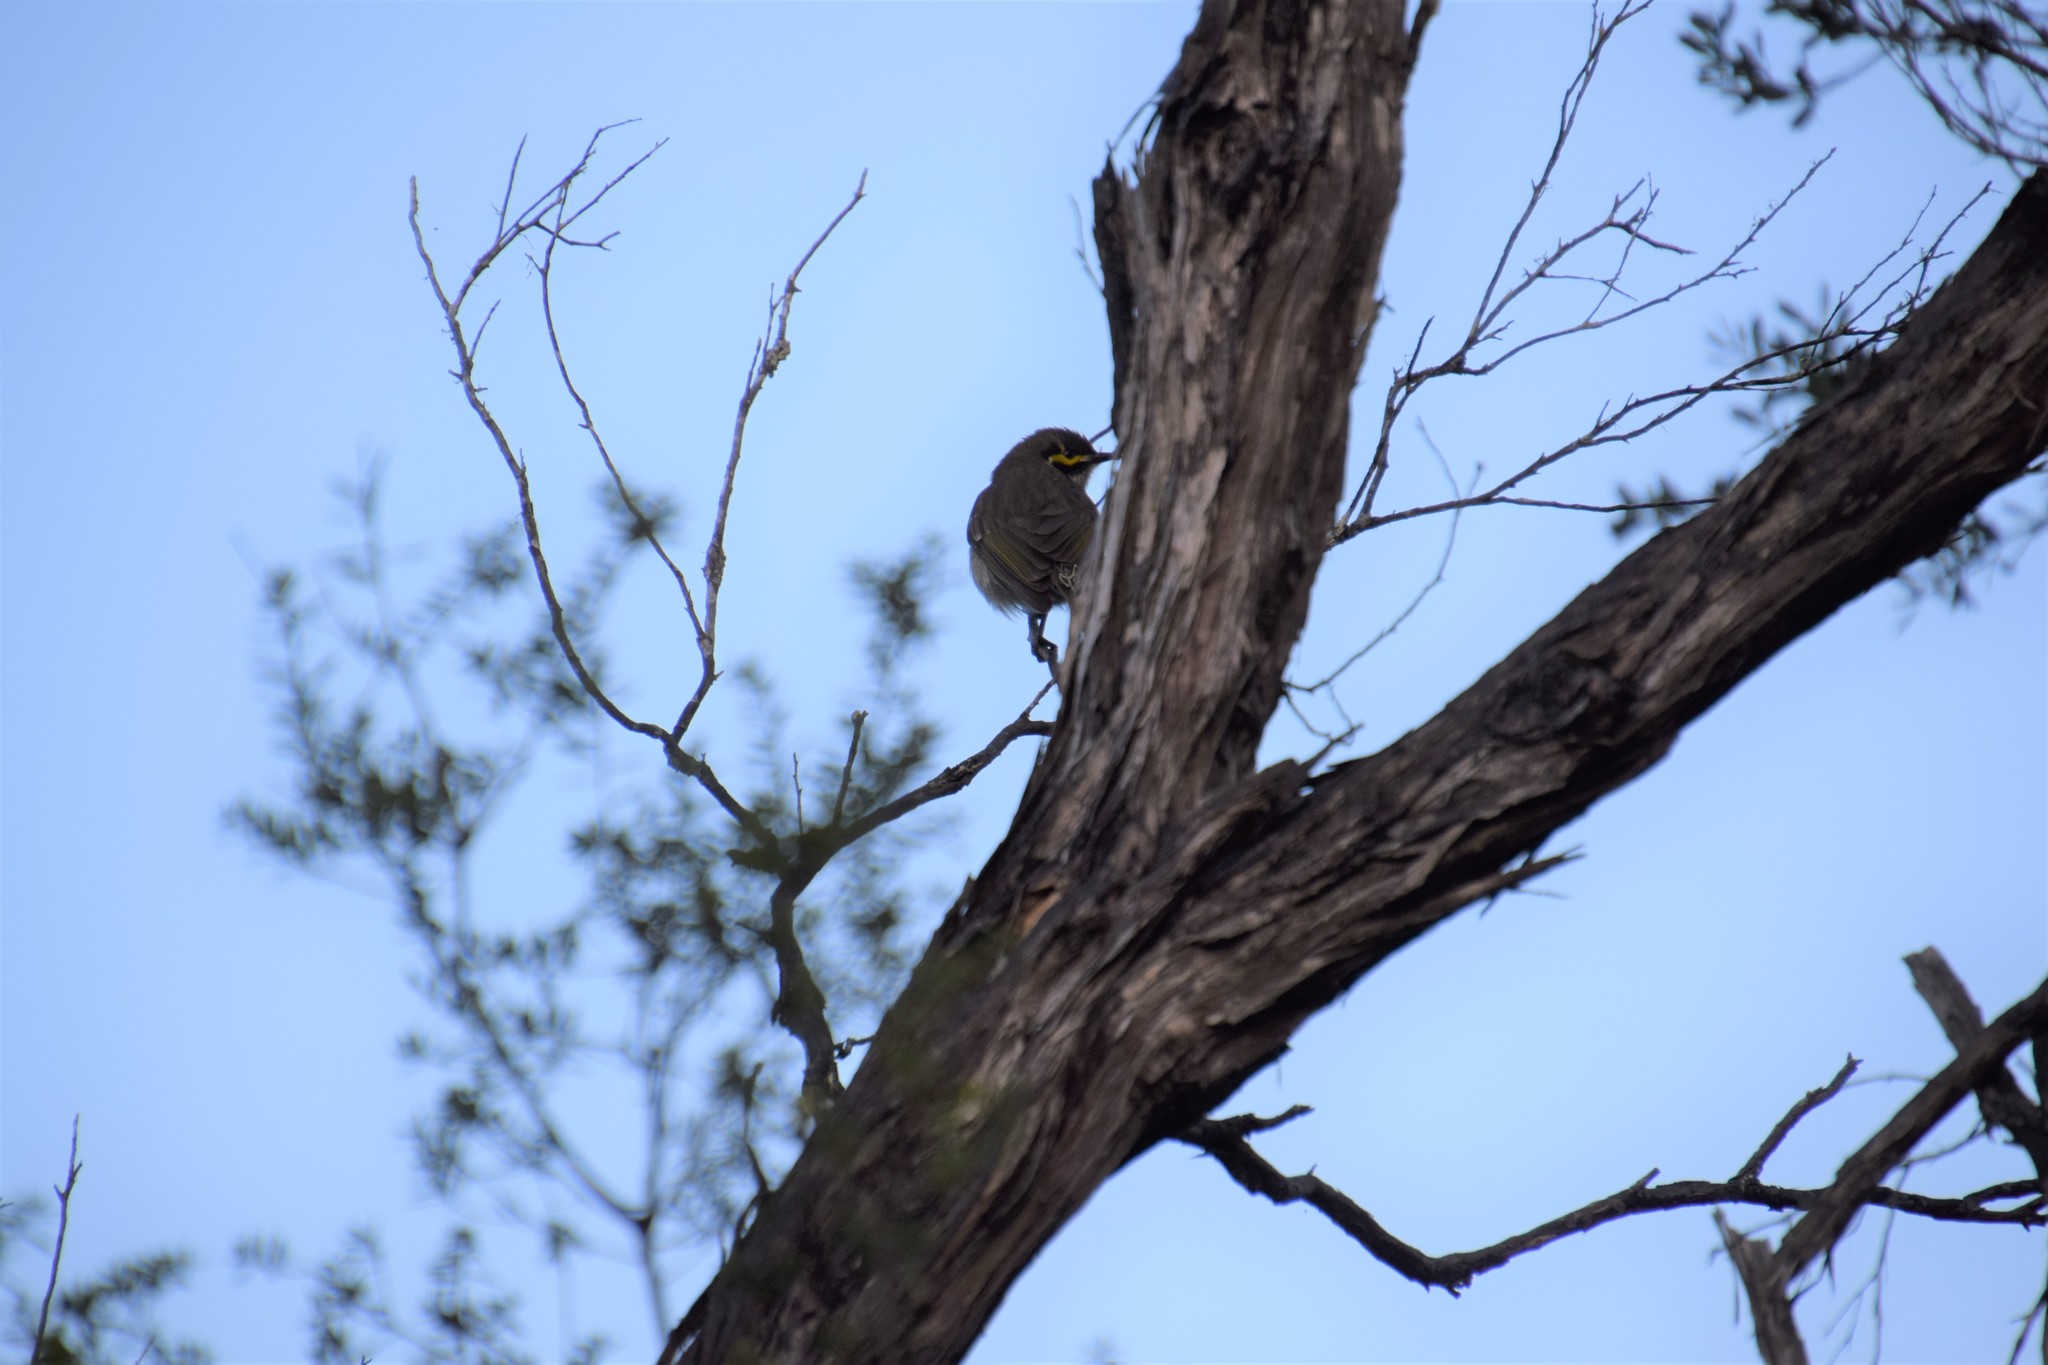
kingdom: Animalia
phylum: Chordata
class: Aves
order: Passeriformes
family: Meliphagidae
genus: Caligavis
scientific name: Caligavis chrysops
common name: Yellow-faced honeyeater
